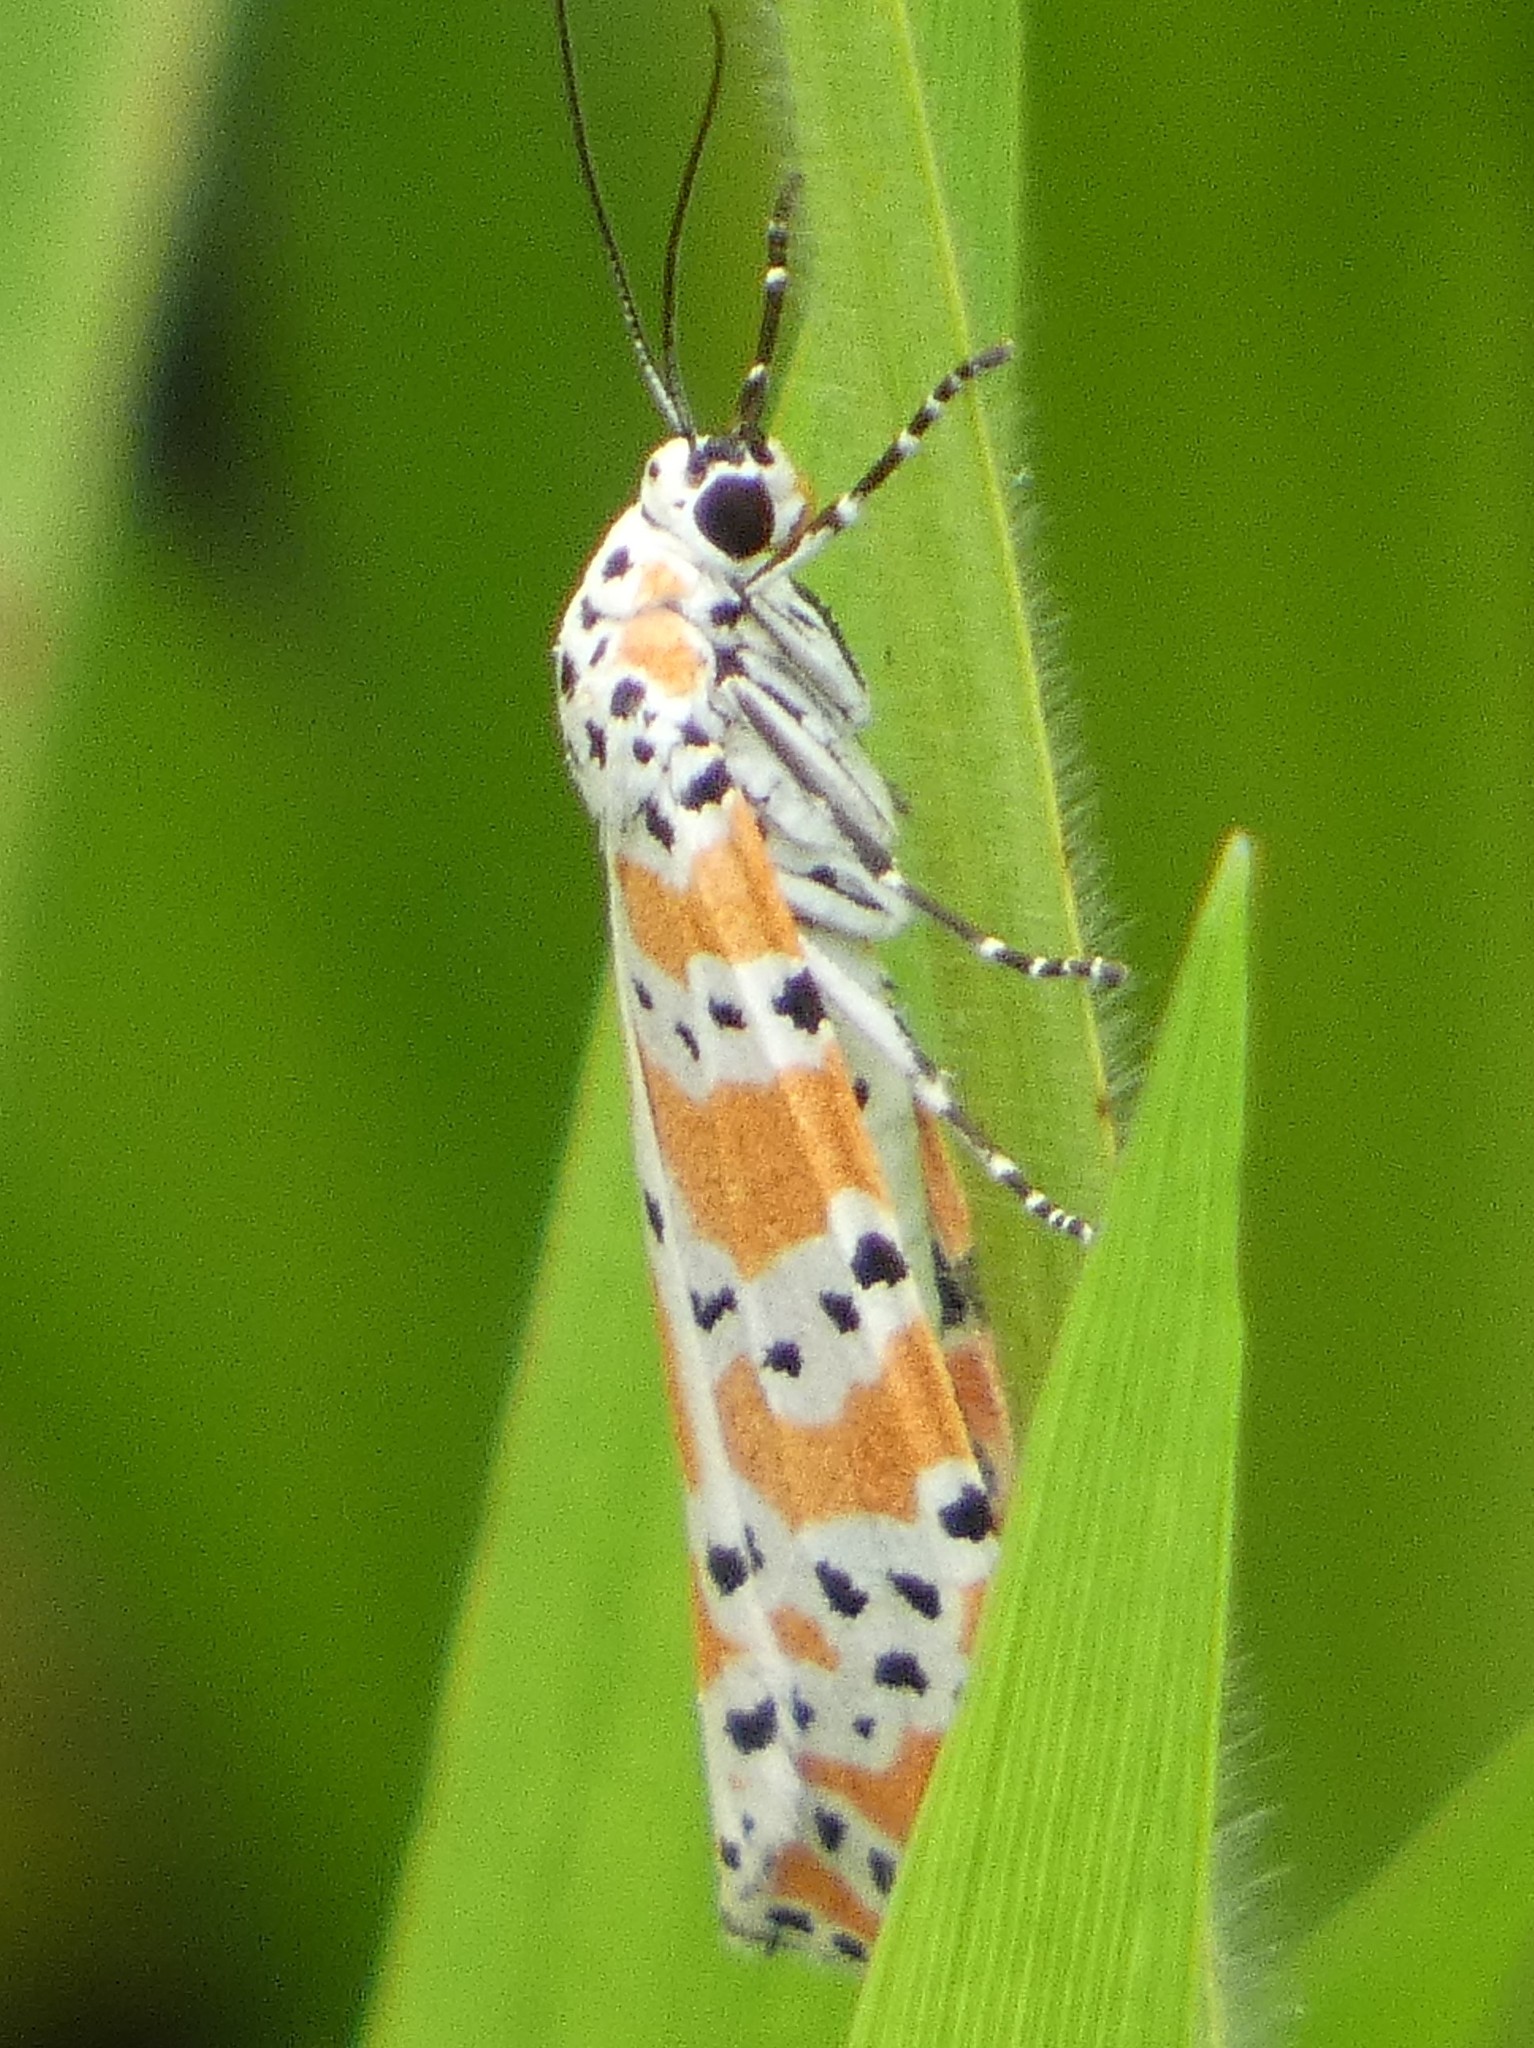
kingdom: Animalia
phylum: Arthropoda
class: Insecta
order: Lepidoptera
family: Erebidae
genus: Utetheisa
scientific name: Utetheisa ornatrix
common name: Beautiful utetheisa
